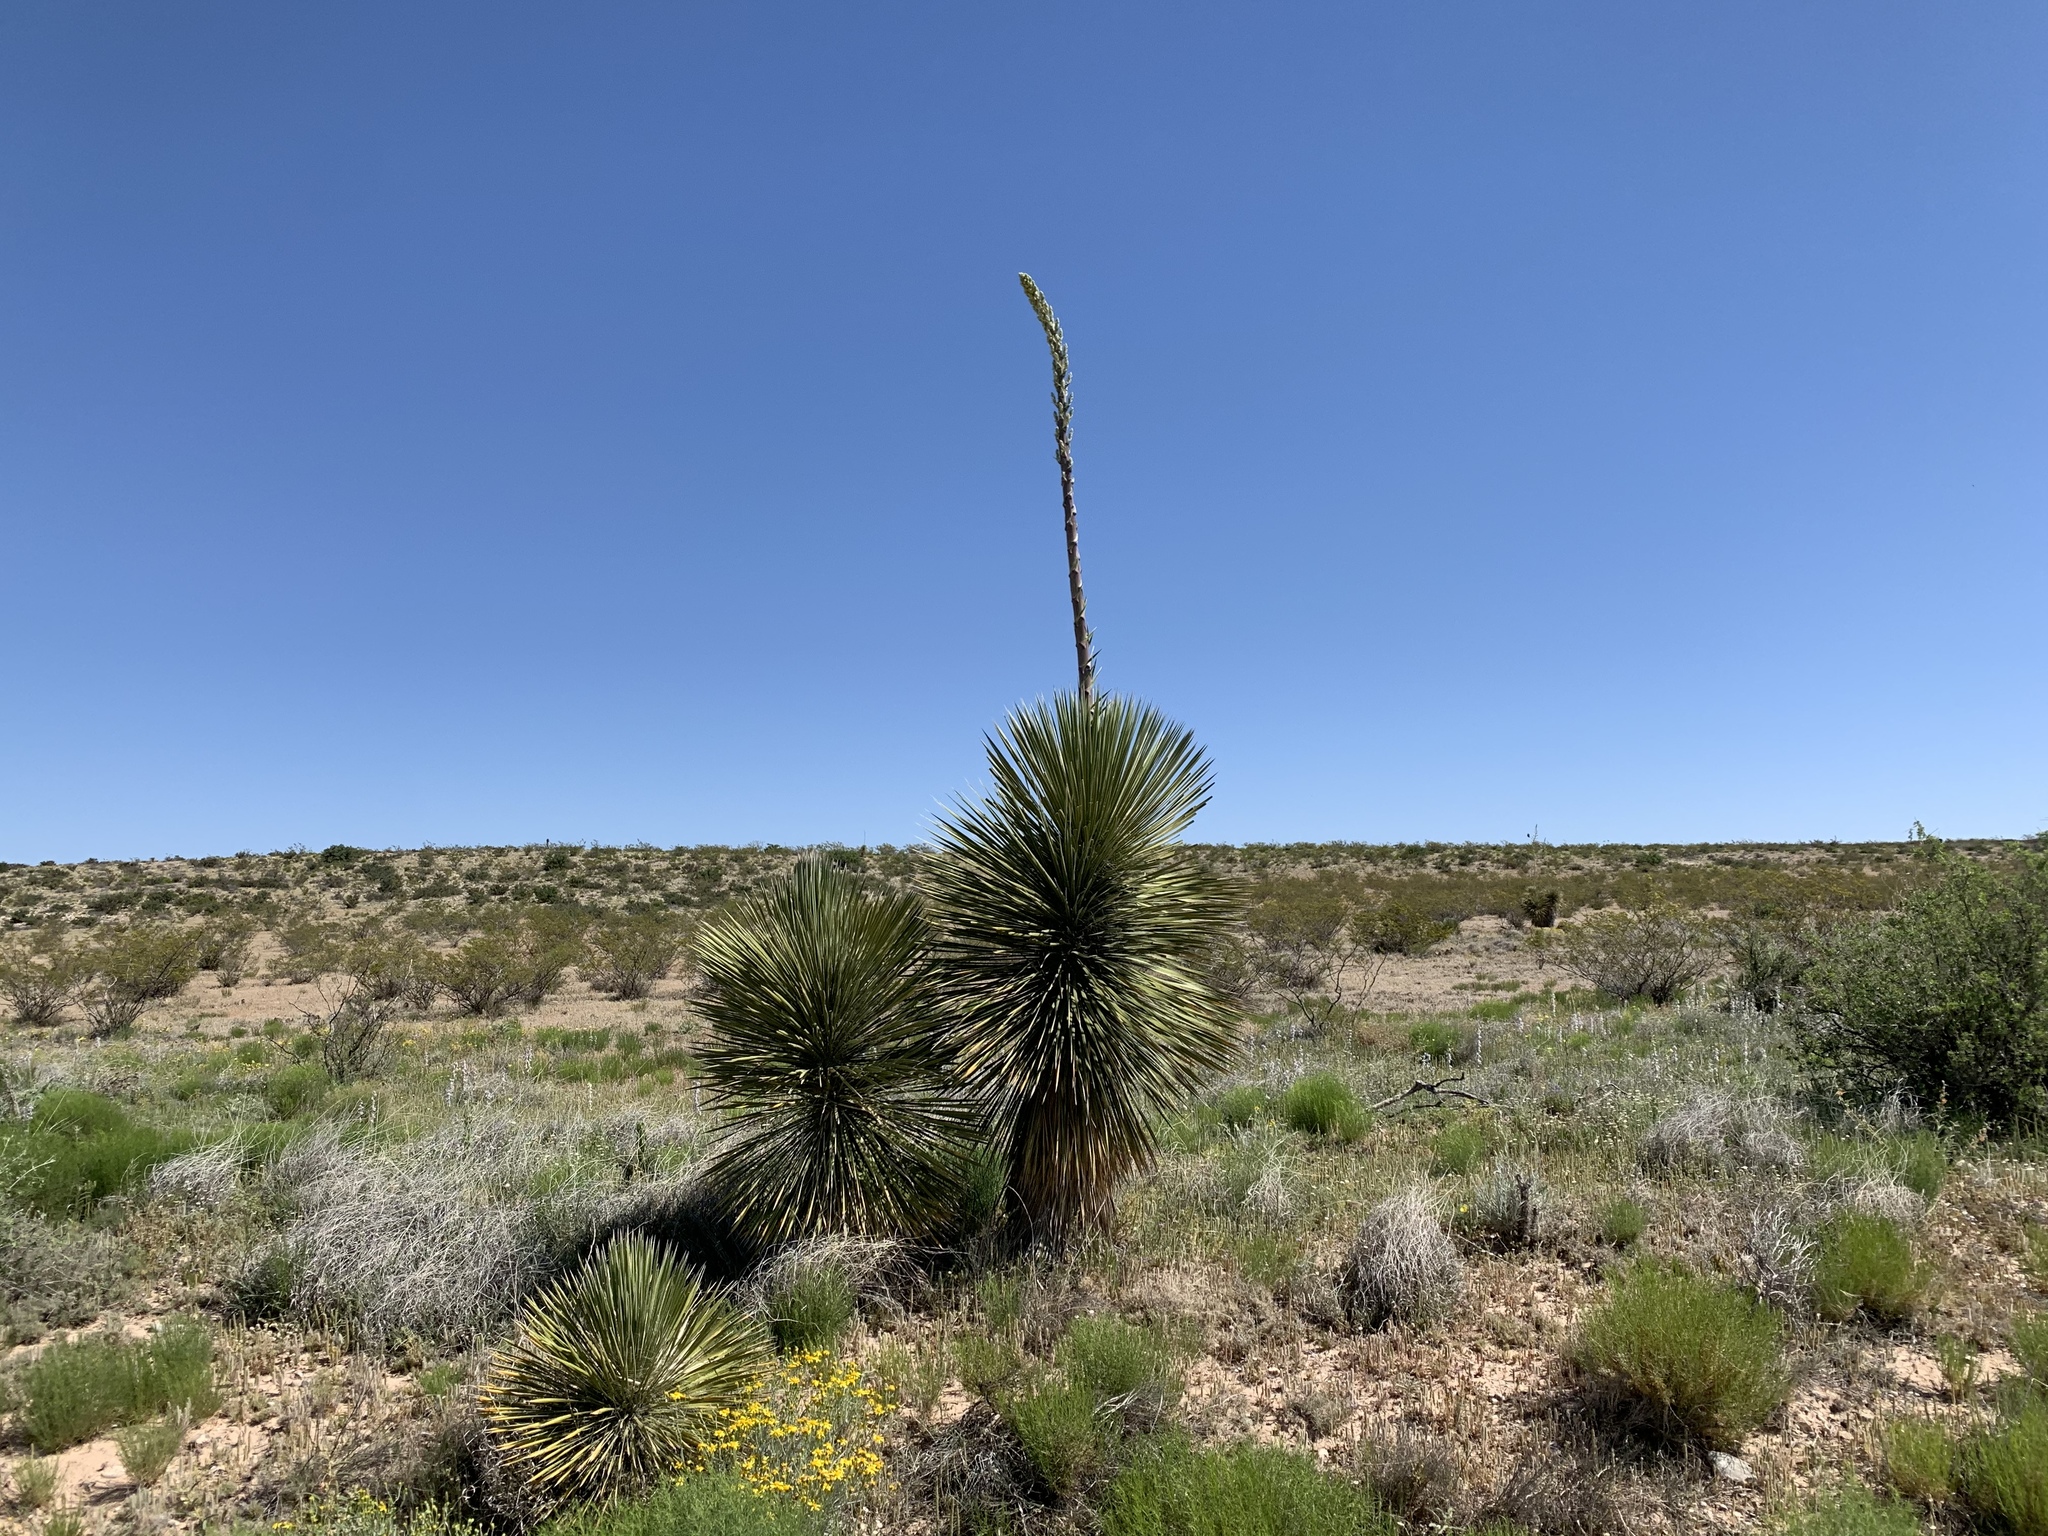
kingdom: Plantae
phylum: Tracheophyta
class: Liliopsida
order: Asparagales
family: Asparagaceae
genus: Yucca
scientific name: Yucca elata
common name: Palmella
